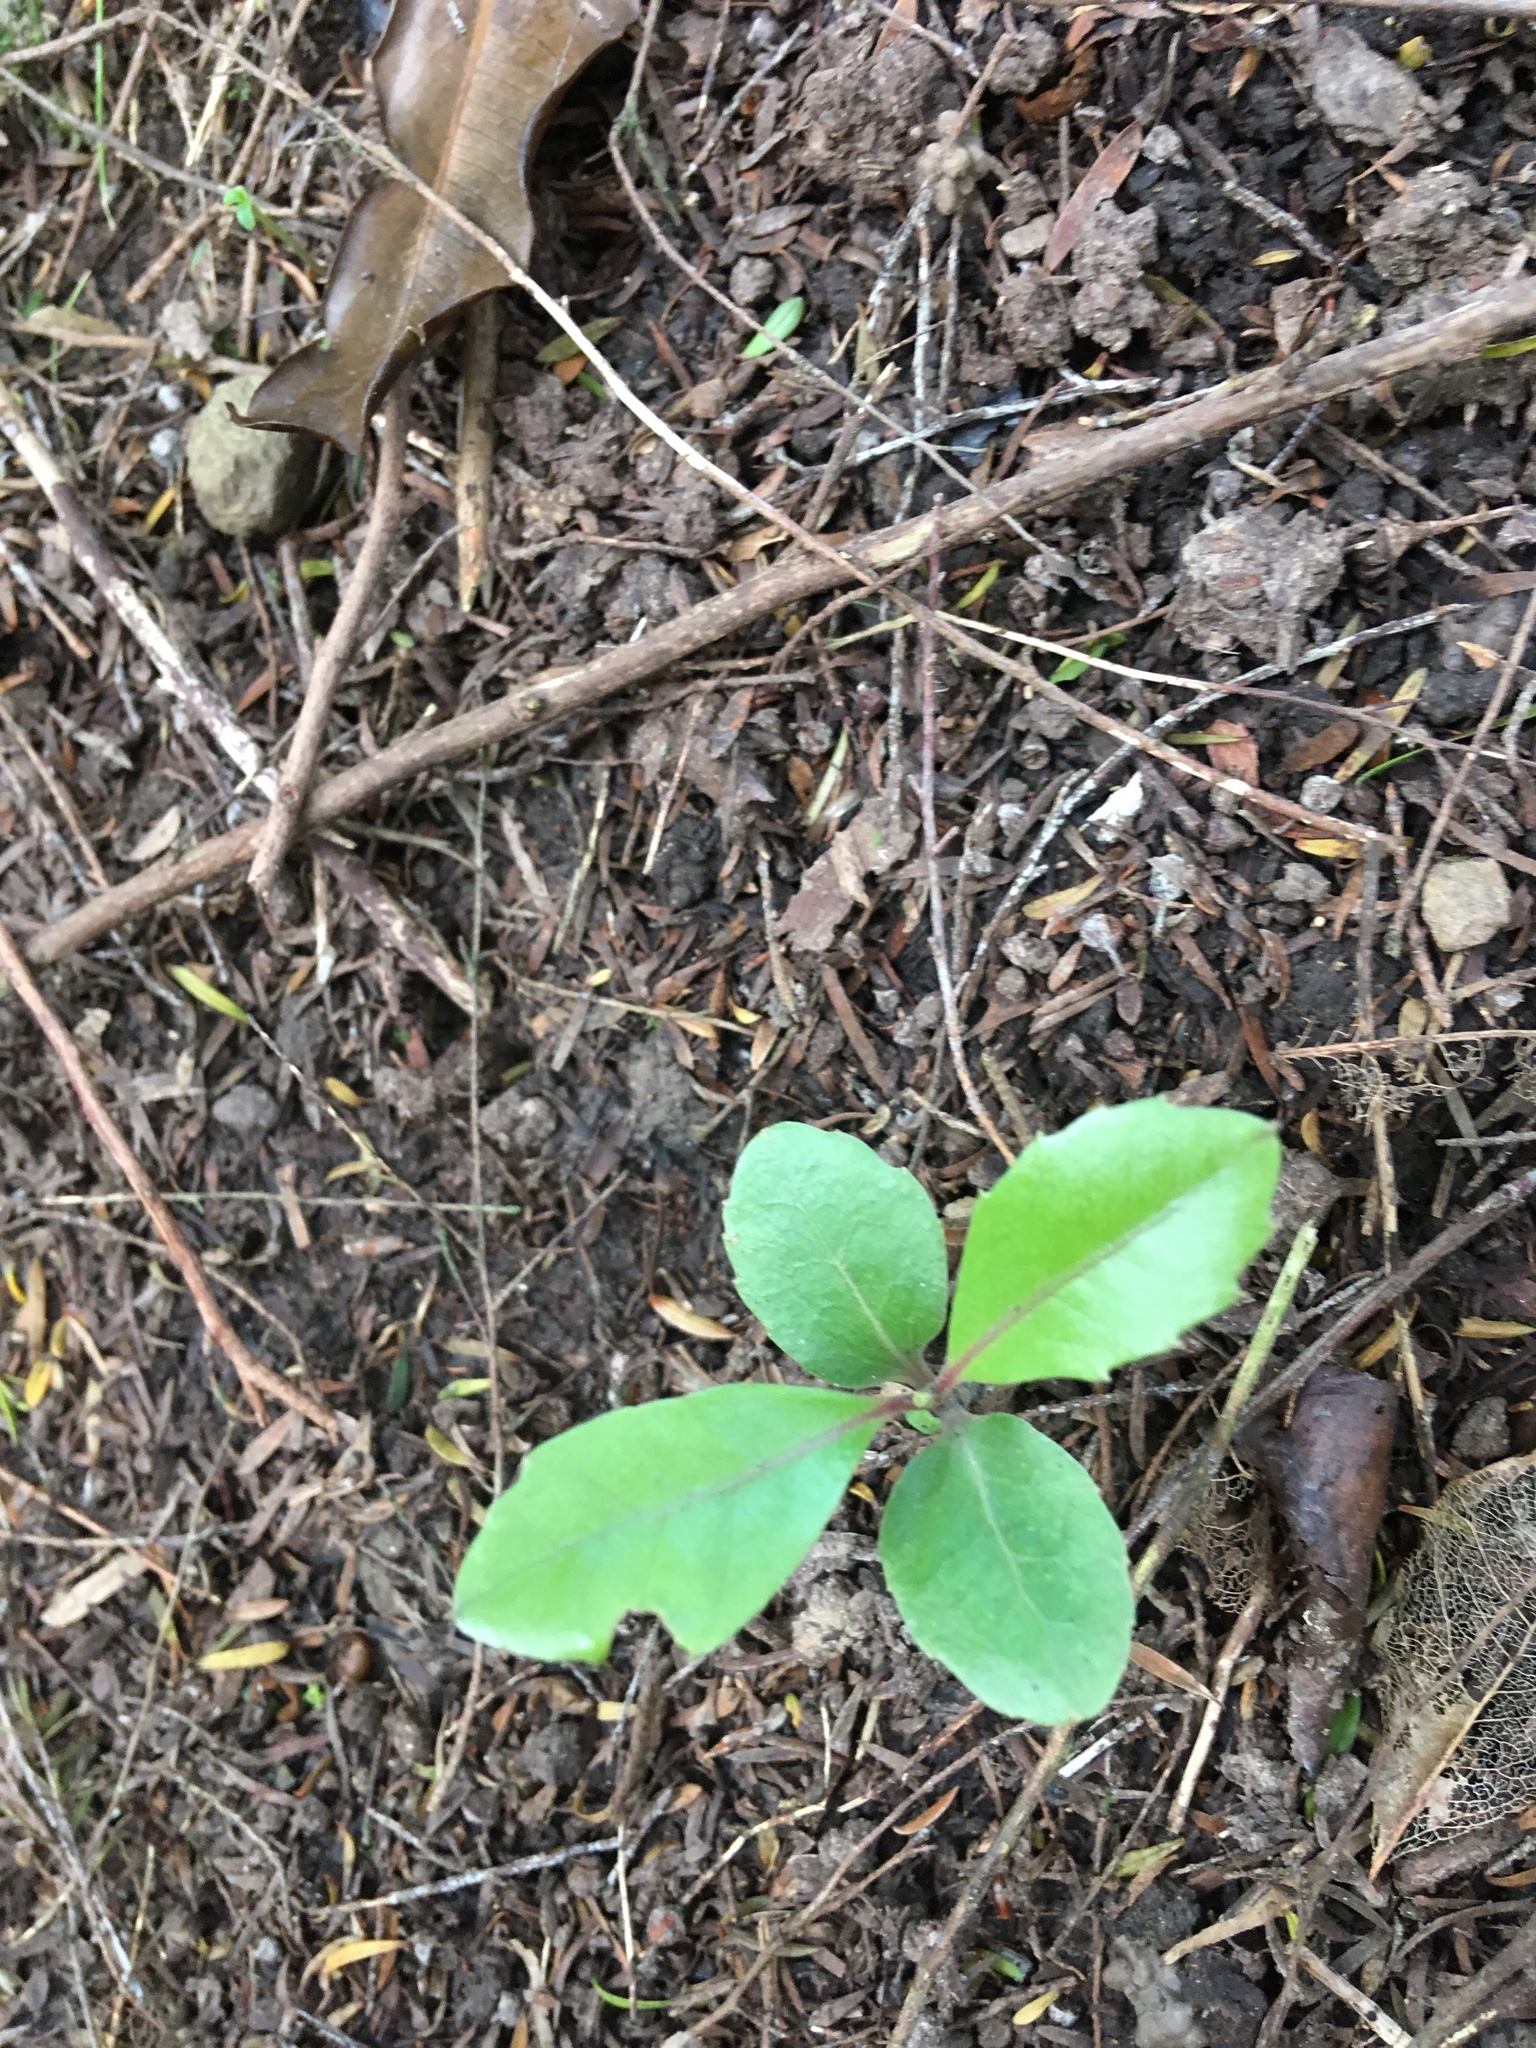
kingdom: Plantae
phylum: Tracheophyta
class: Magnoliopsida
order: Laurales
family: Monimiaceae
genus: Hedycarya
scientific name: Hedycarya arborea
